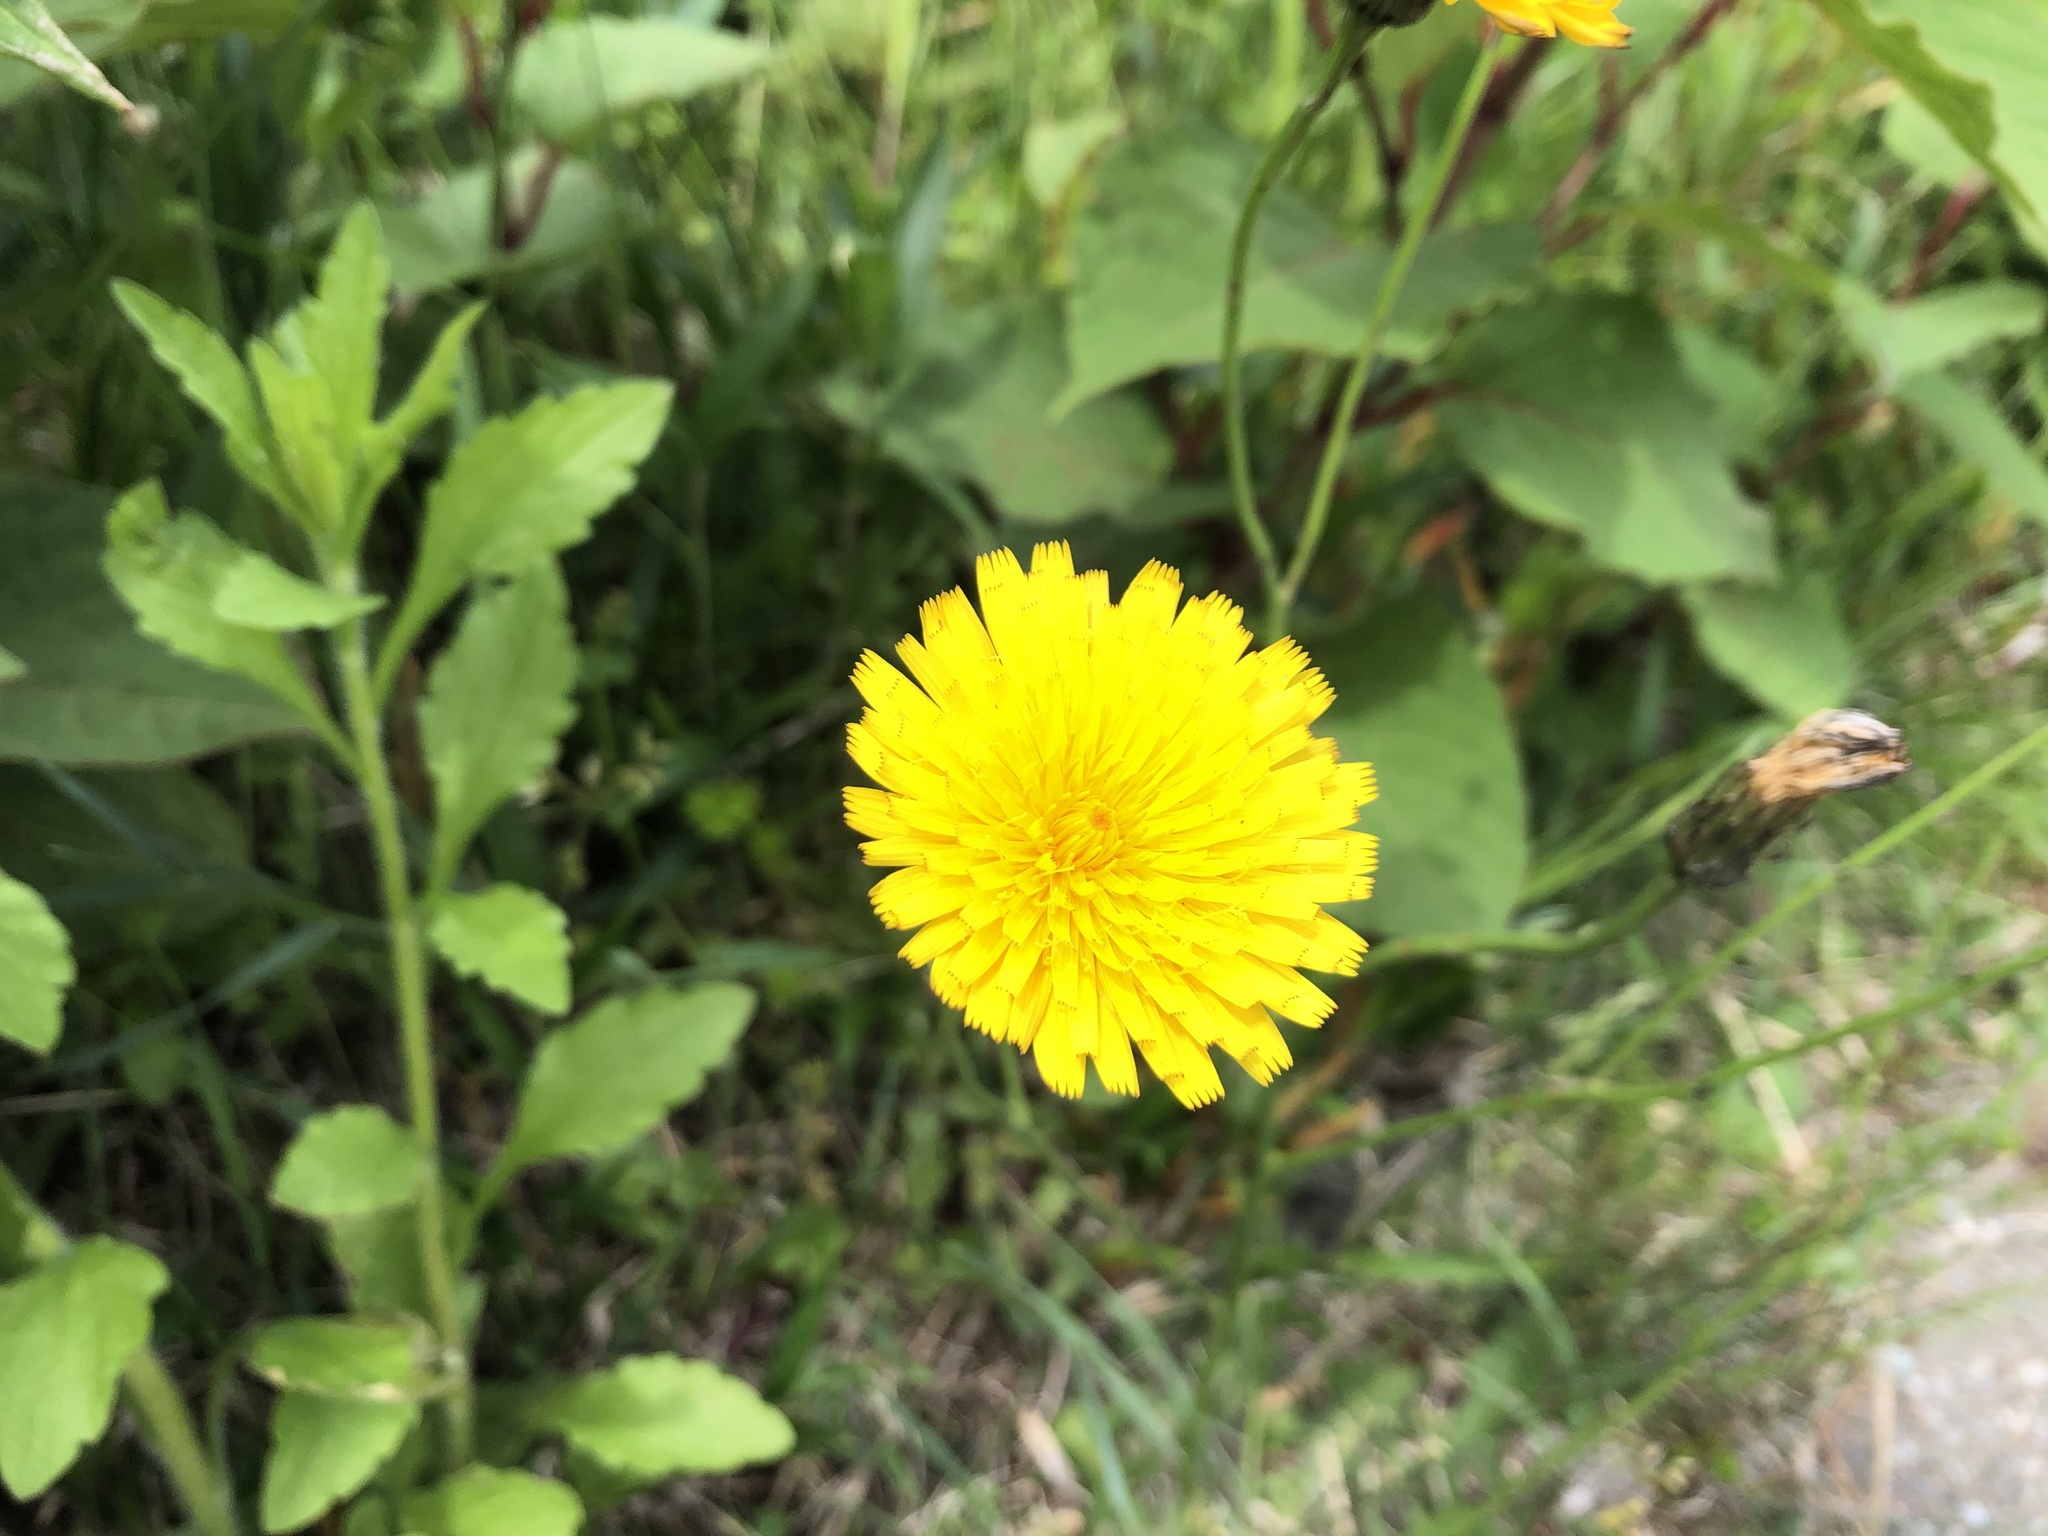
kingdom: Plantae
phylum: Tracheophyta
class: Magnoliopsida
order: Asterales
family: Asteraceae
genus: Hypochaeris
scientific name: Hypochaeris radicata
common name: Flatweed
